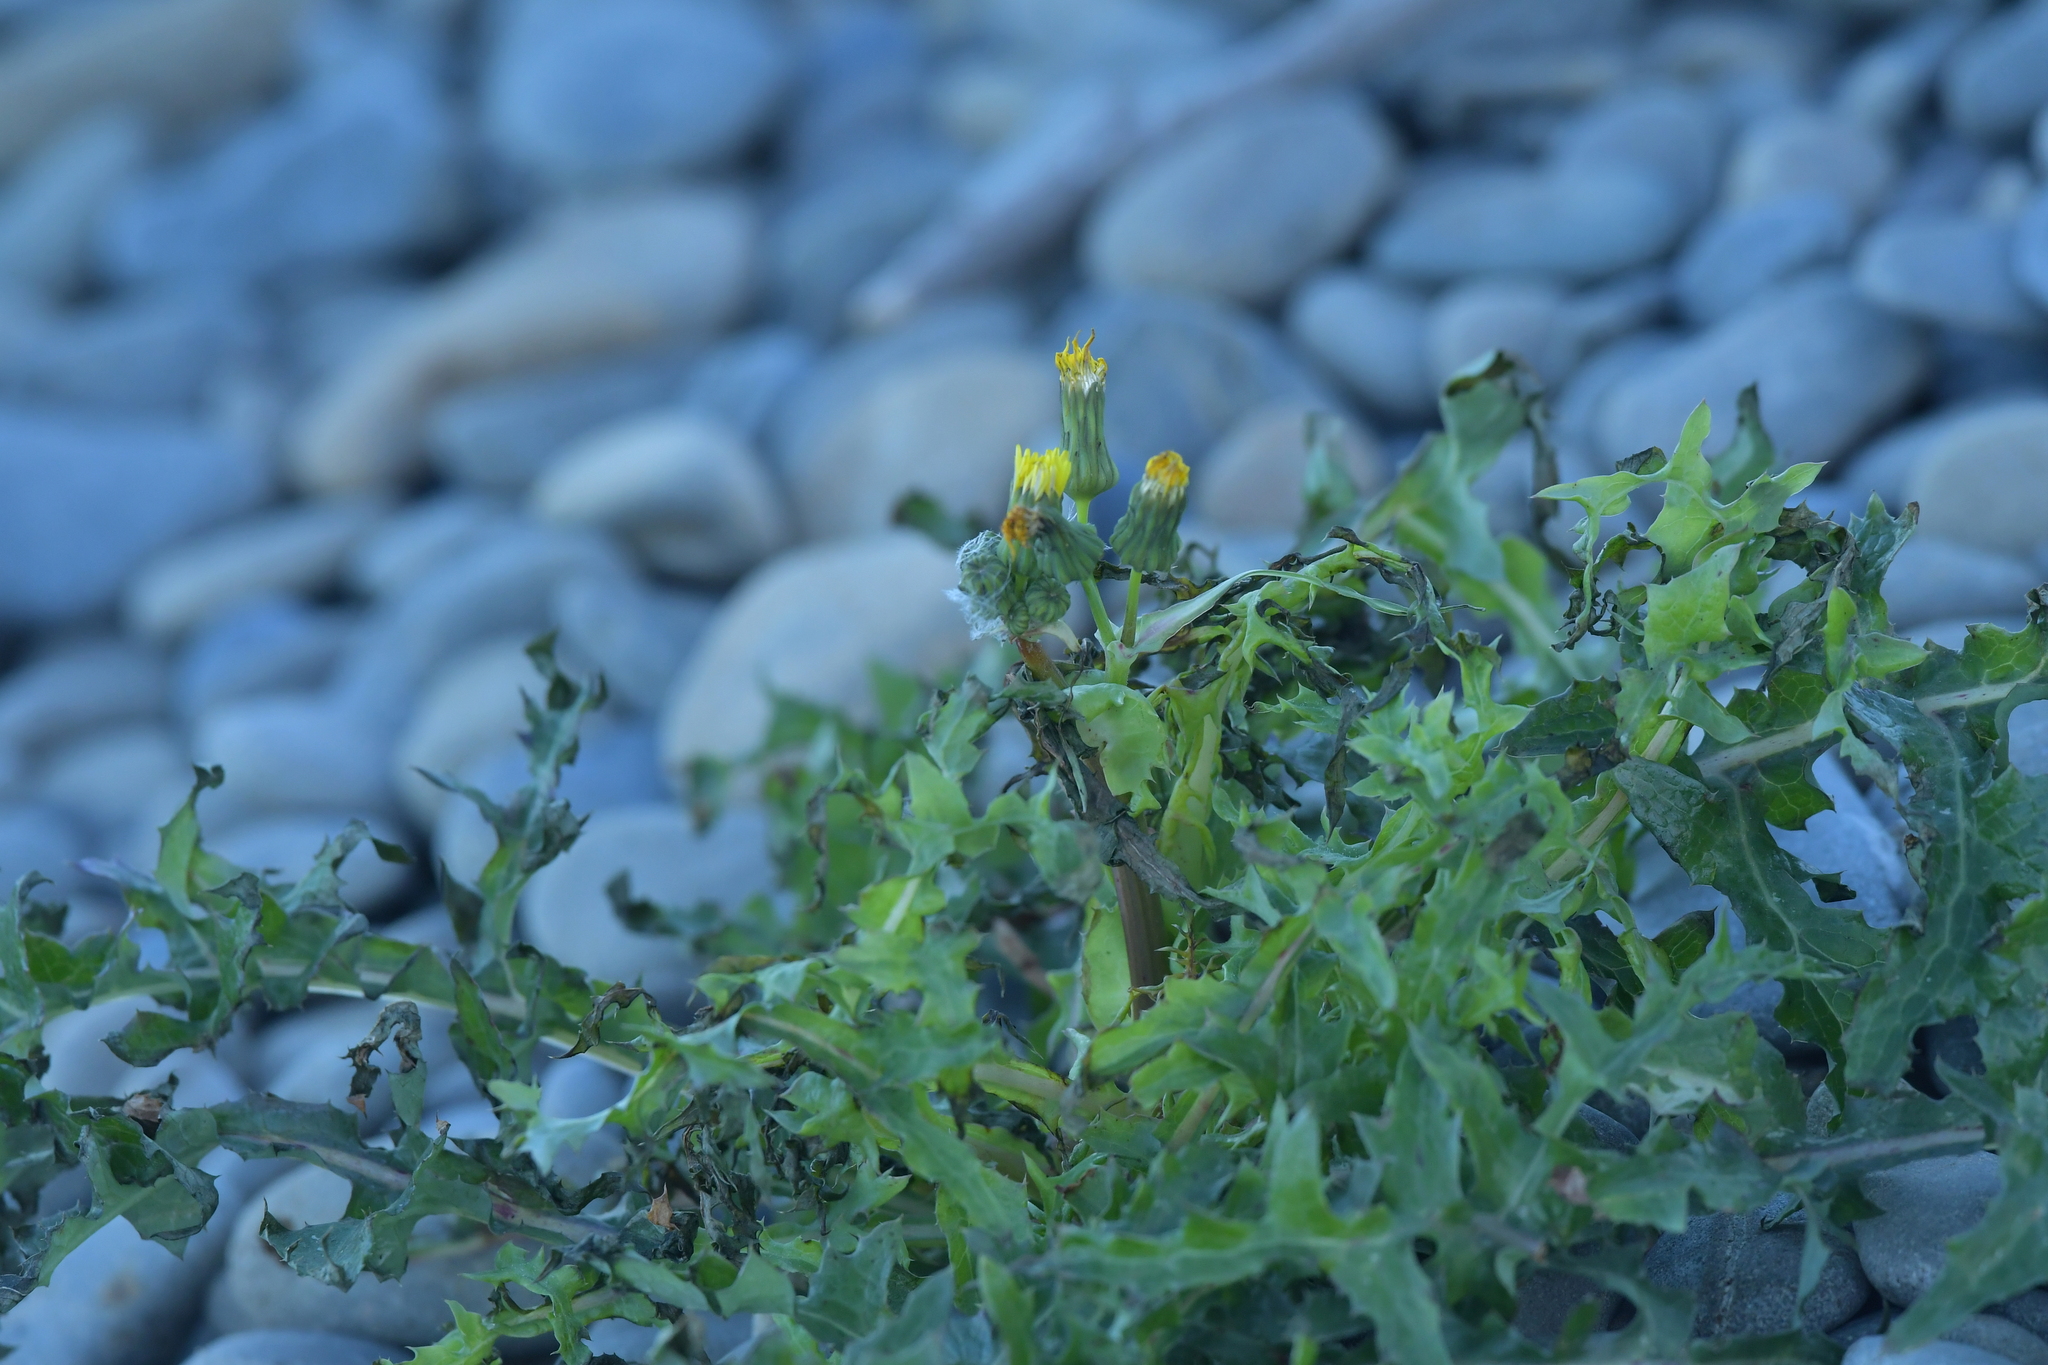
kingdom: Plantae
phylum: Tracheophyta
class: Magnoliopsida
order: Asterales
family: Asteraceae
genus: Sonchus
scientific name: Sonchus oleraceus
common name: Common sowthistle
